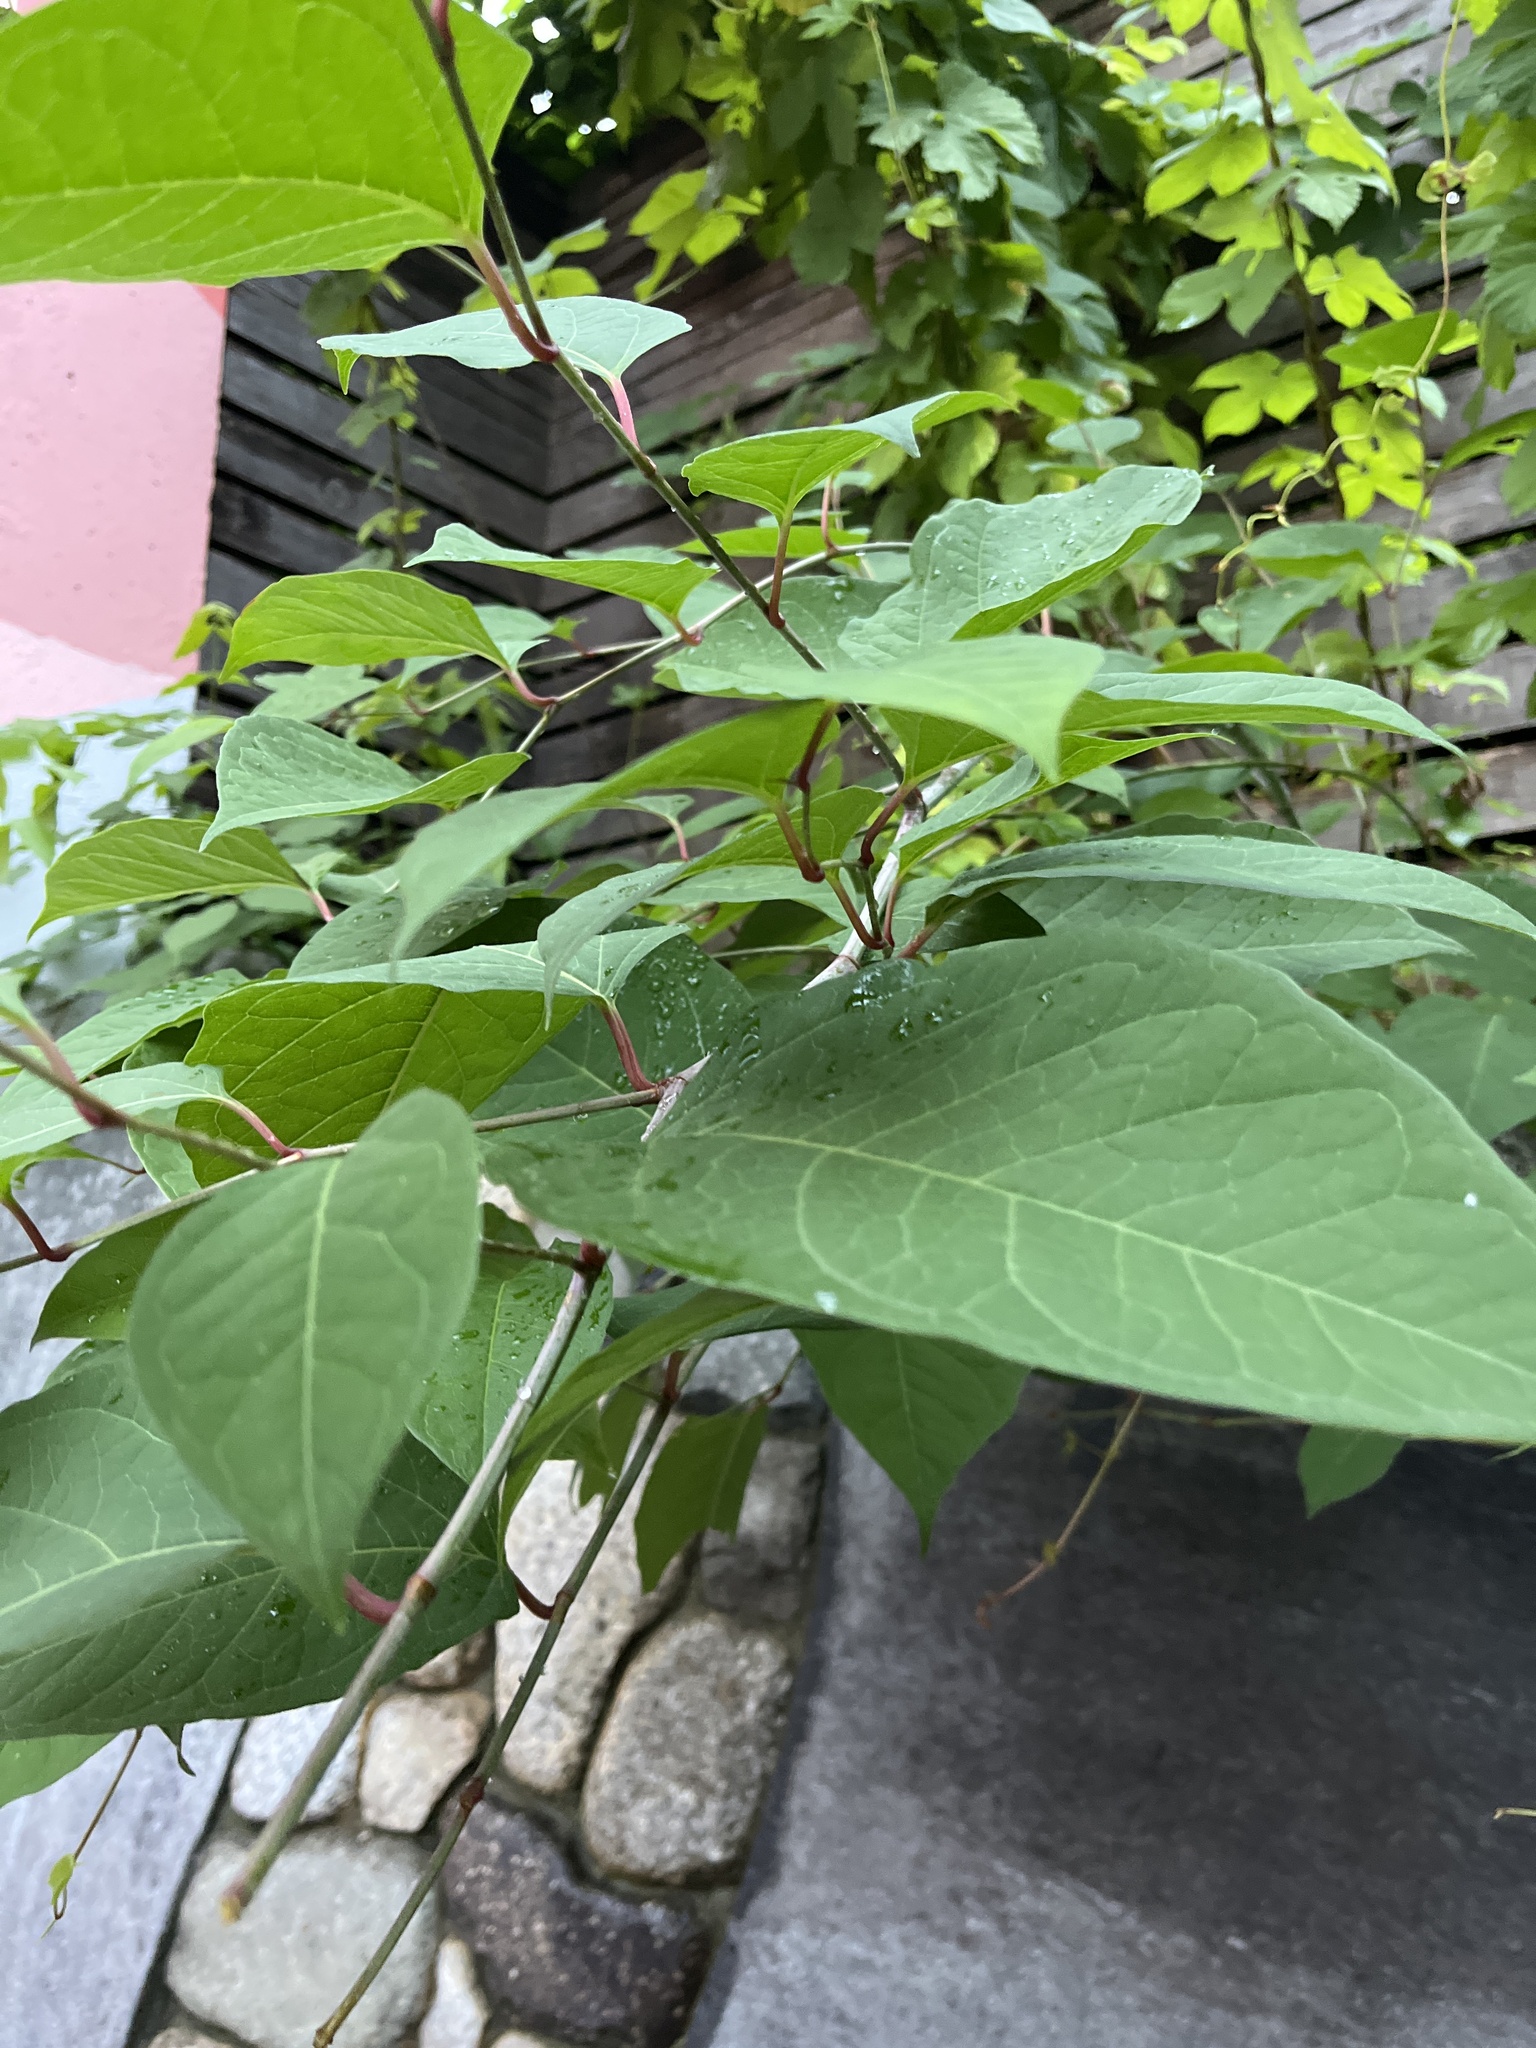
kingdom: Plantae
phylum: Tracheophyta
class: Magnoliopsida
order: Caryophyllales
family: Polygonaceae
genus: Reynoutria
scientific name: Reynoutria japonica
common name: Japanese knotweed
